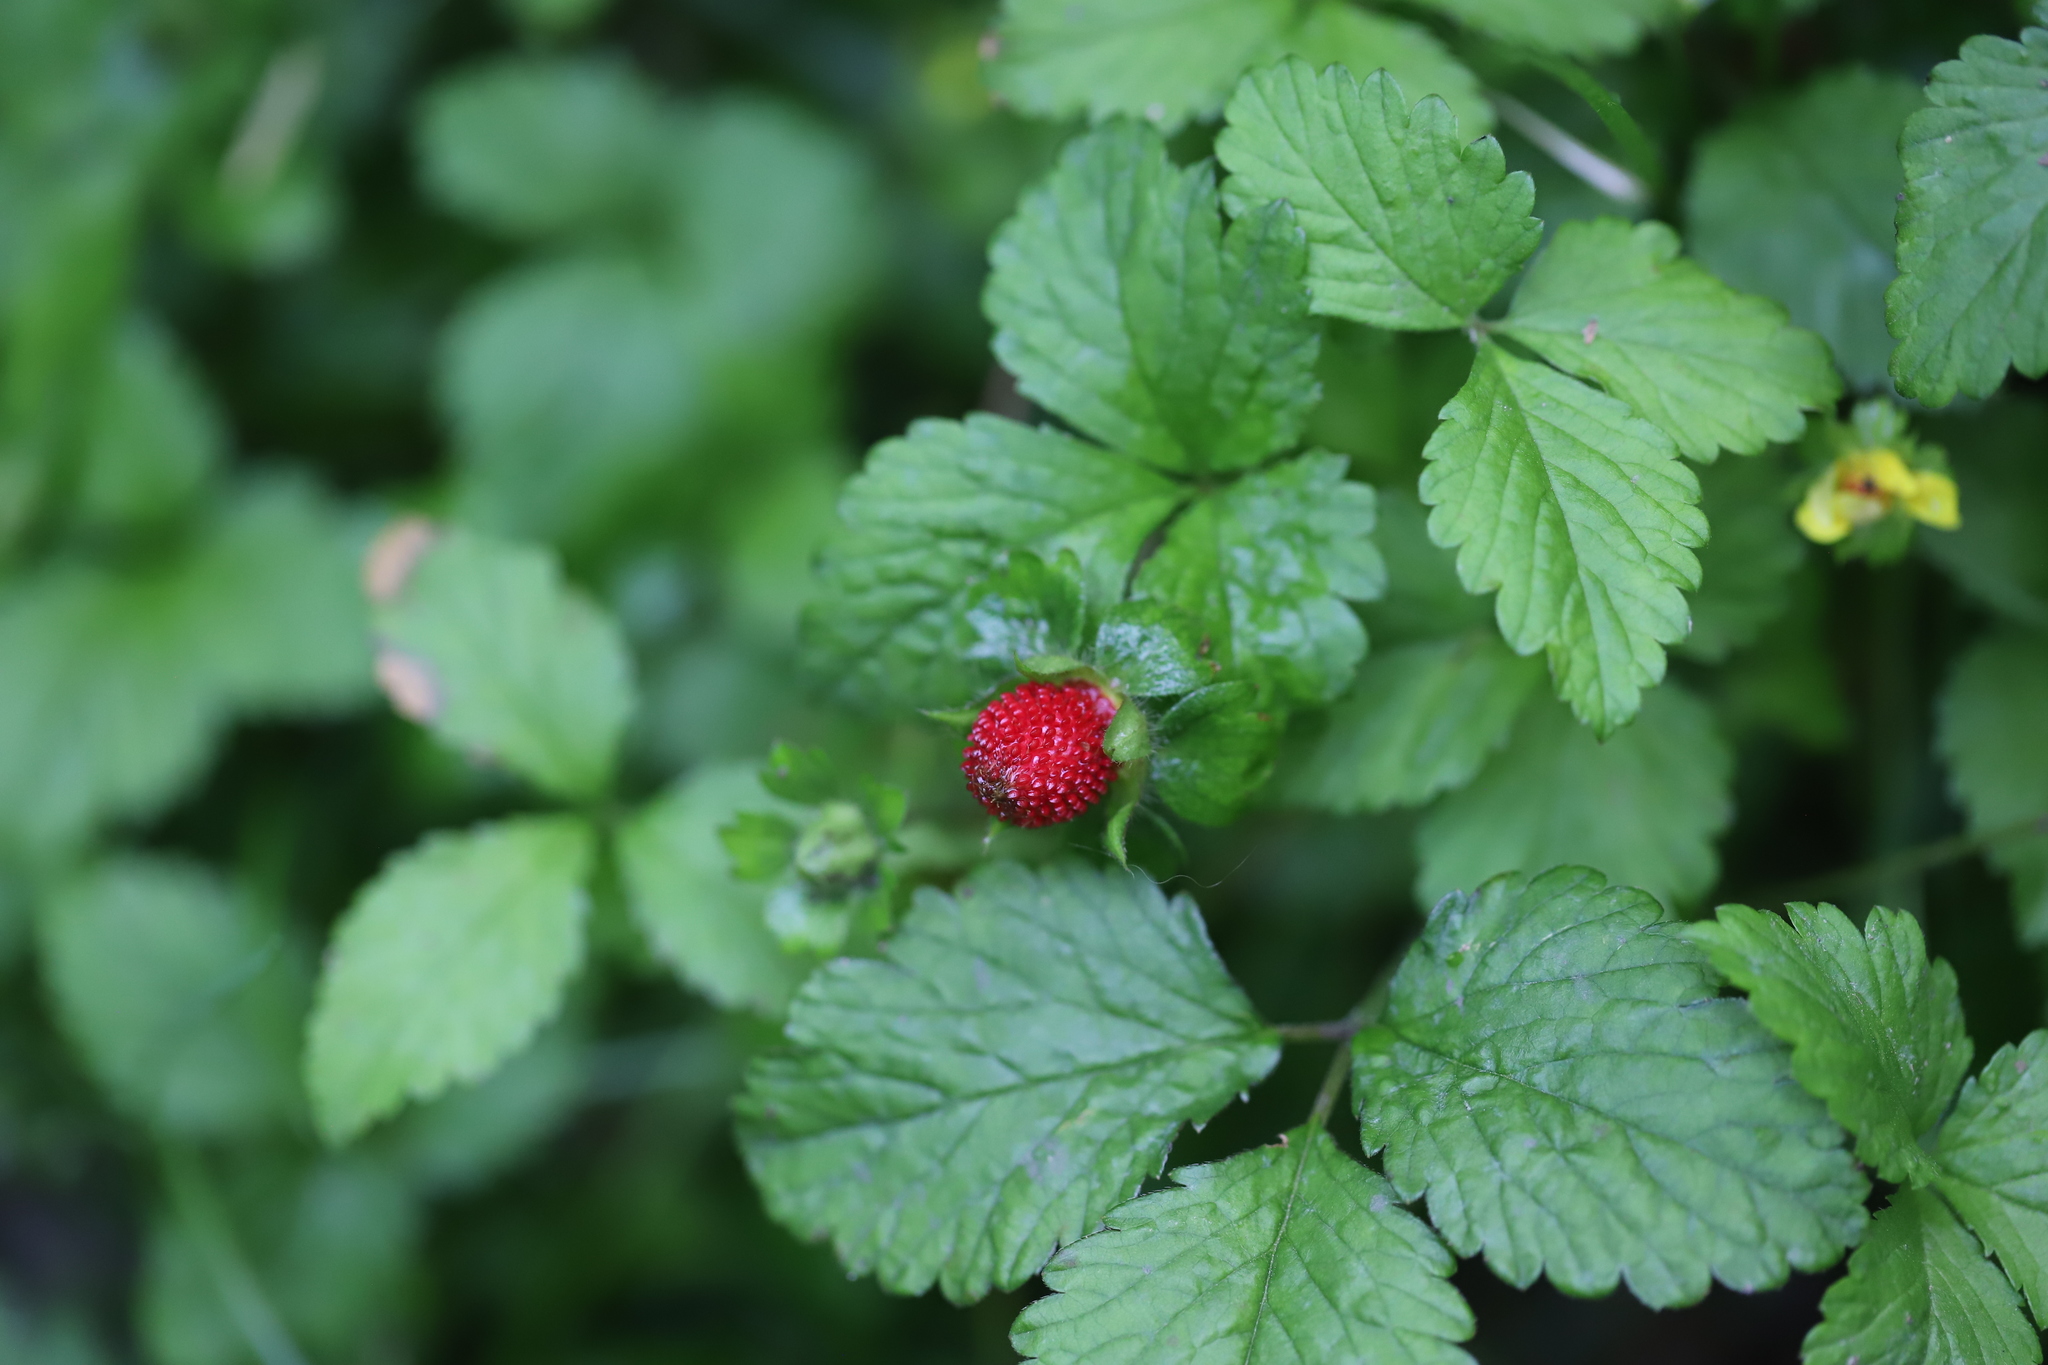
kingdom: Plantae
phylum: Tracheophyta
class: Magnoliopsida
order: Rosales
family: Rosaceae
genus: Potentilla
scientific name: Potentilla indica
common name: Yellow-flowered strawberry
